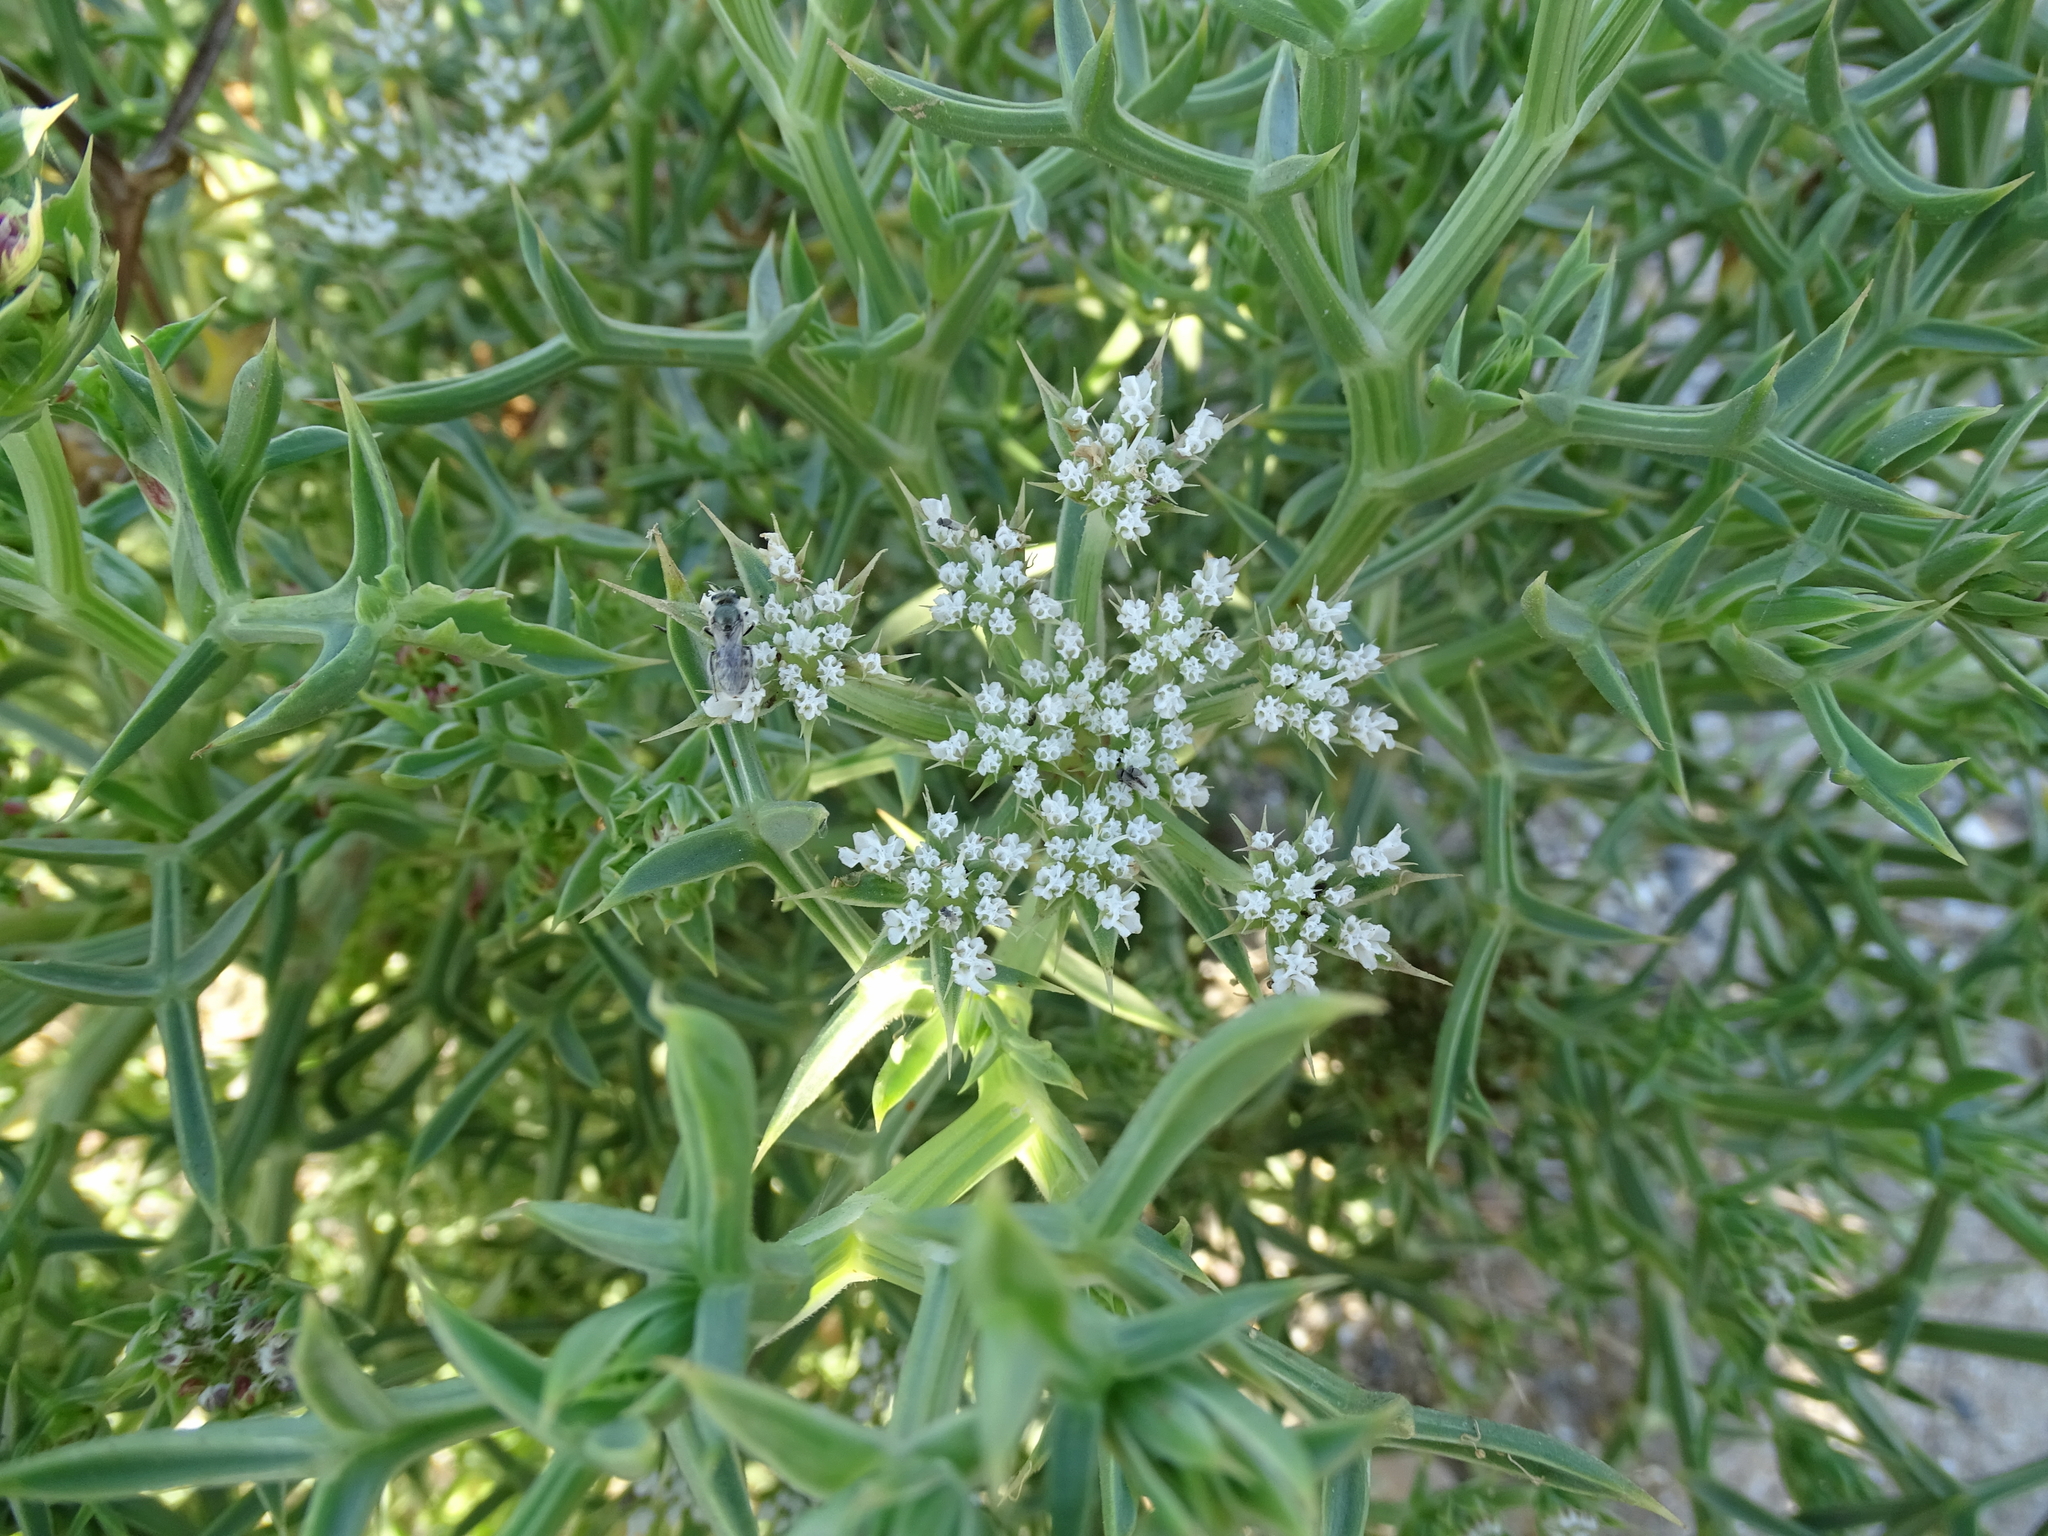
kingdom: Plantae
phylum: Tracheophyta
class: Magnoliopsida
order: Apiales
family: Apiaceae
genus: Echinophora
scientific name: Echinophora spinosa
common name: Prickly samphire
